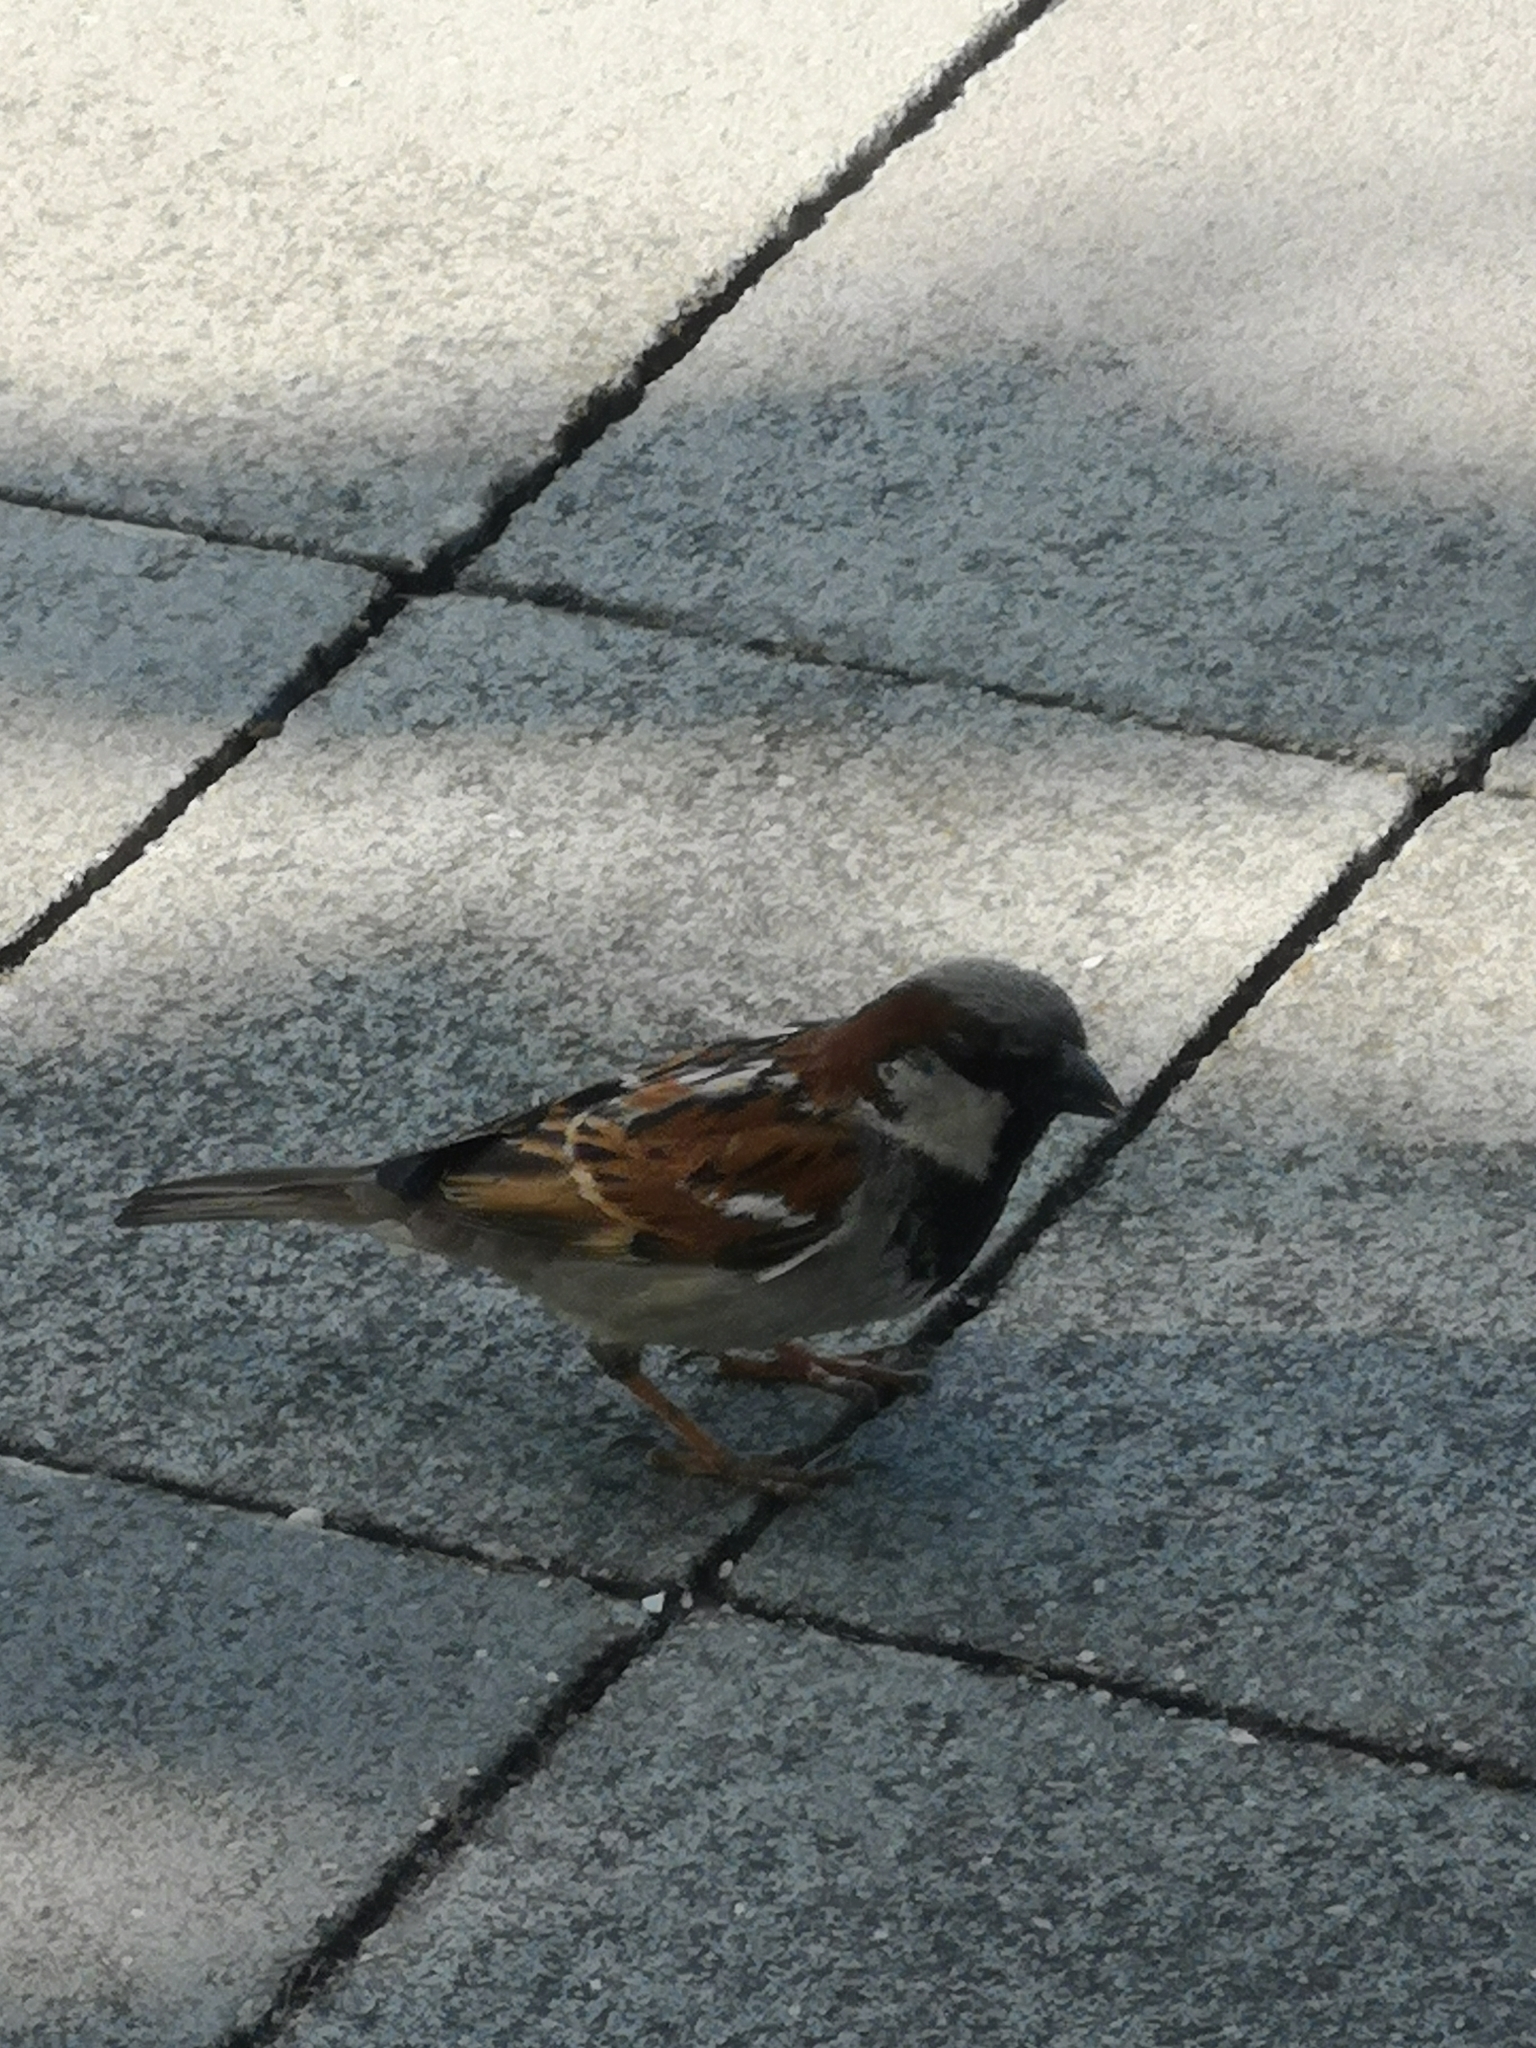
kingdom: Animalia
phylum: Chordata
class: Aves
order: Passeriformes
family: Passeridae
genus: Passer
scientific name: Passer domesticus
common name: House sparrow
